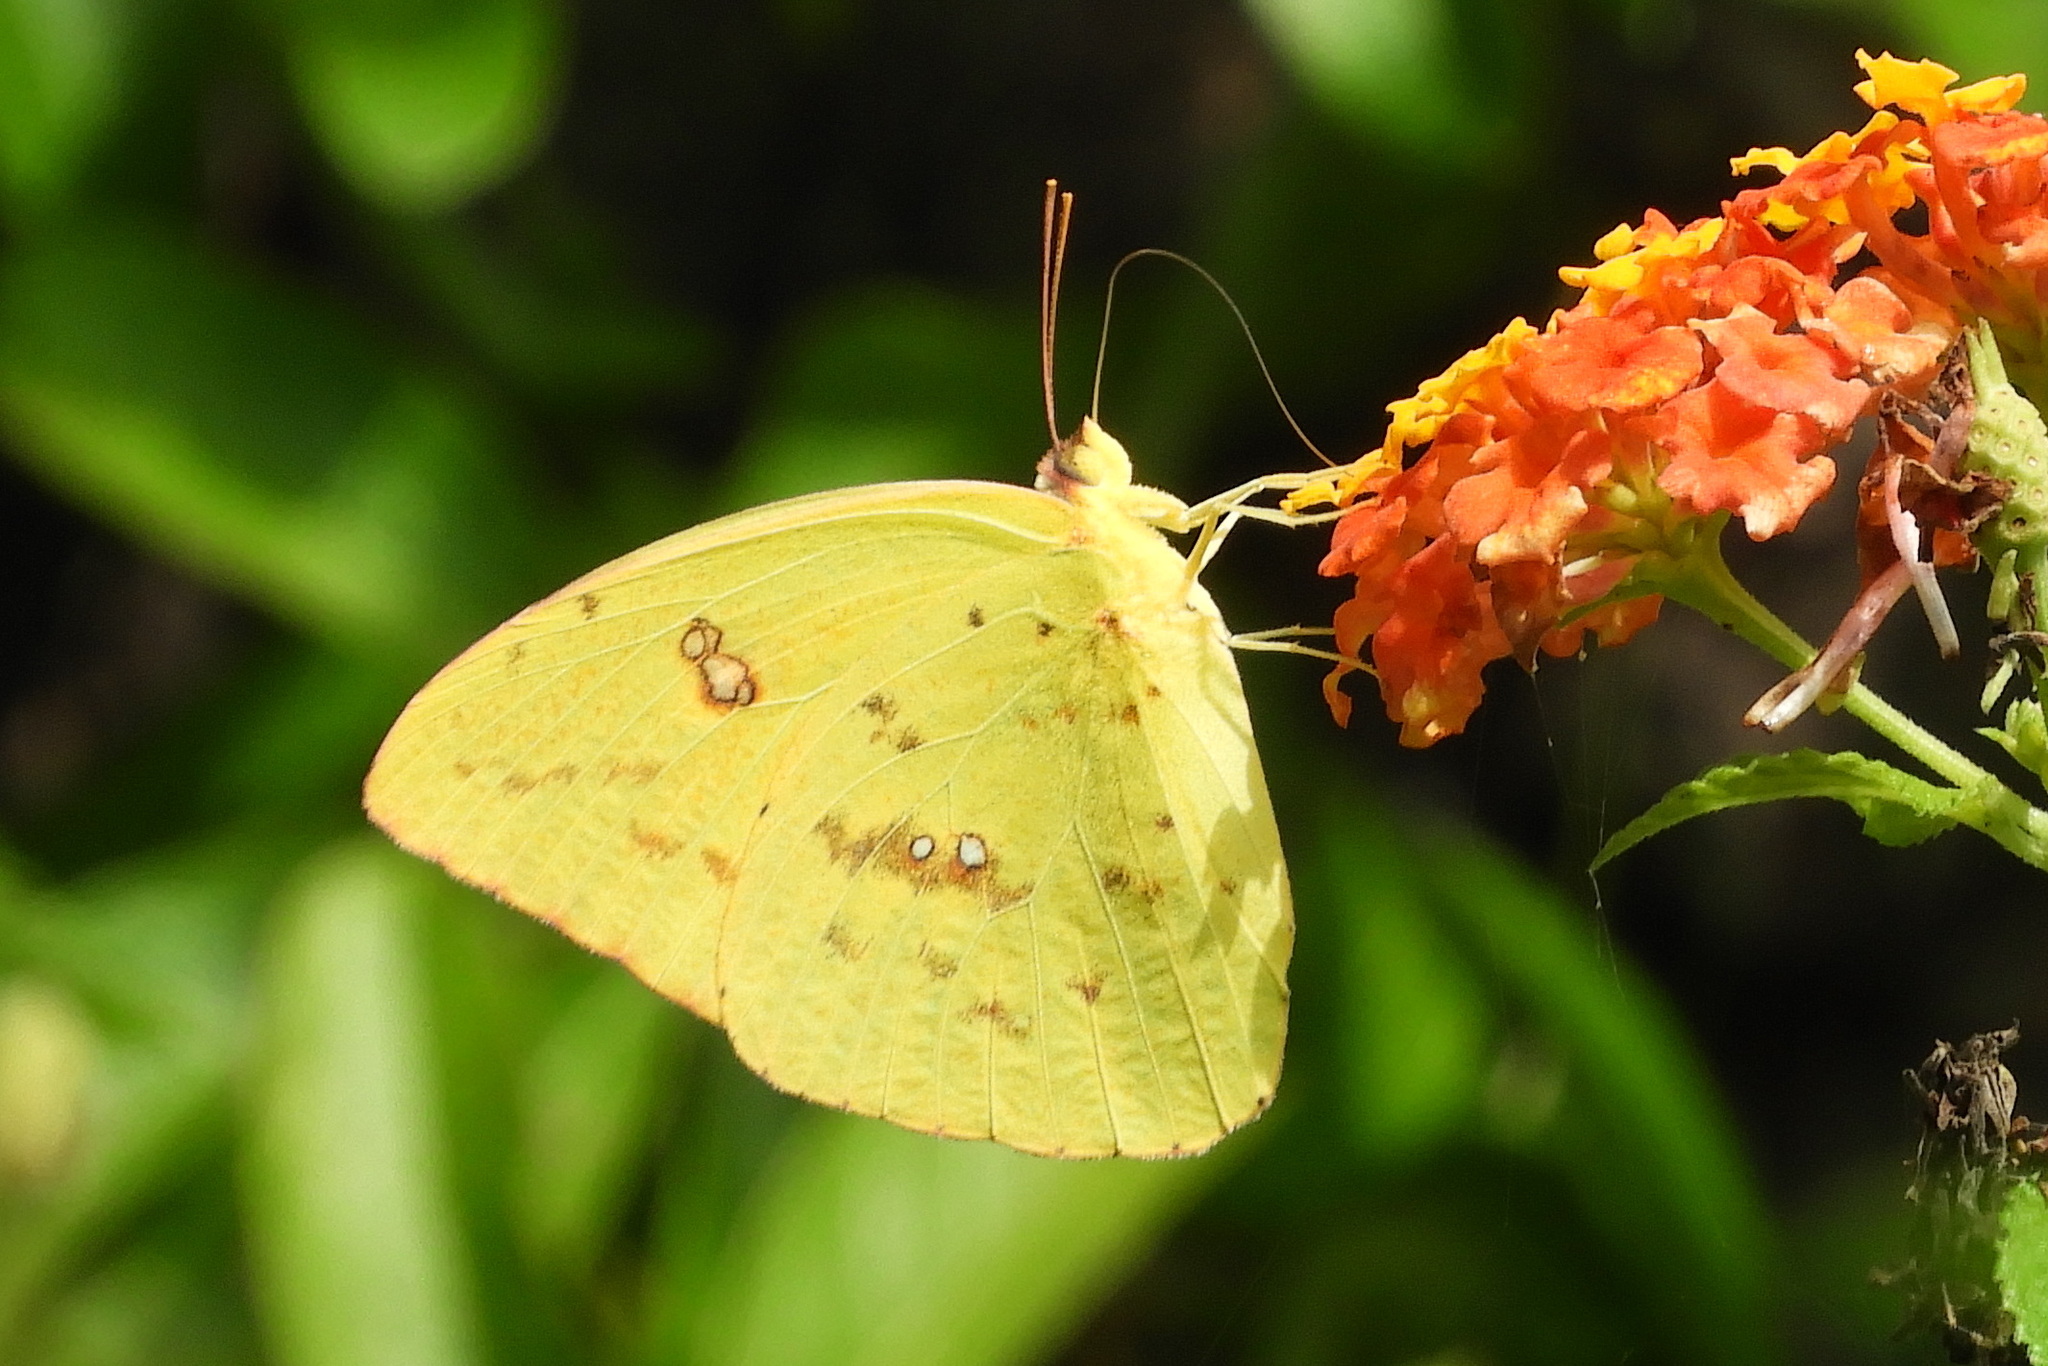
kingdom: Animalia
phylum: Arthropoda
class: Insecta
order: Lepidoptera
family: Pieridae
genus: Phoebis
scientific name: Phoebis sennae
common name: Cloudless sulphur
